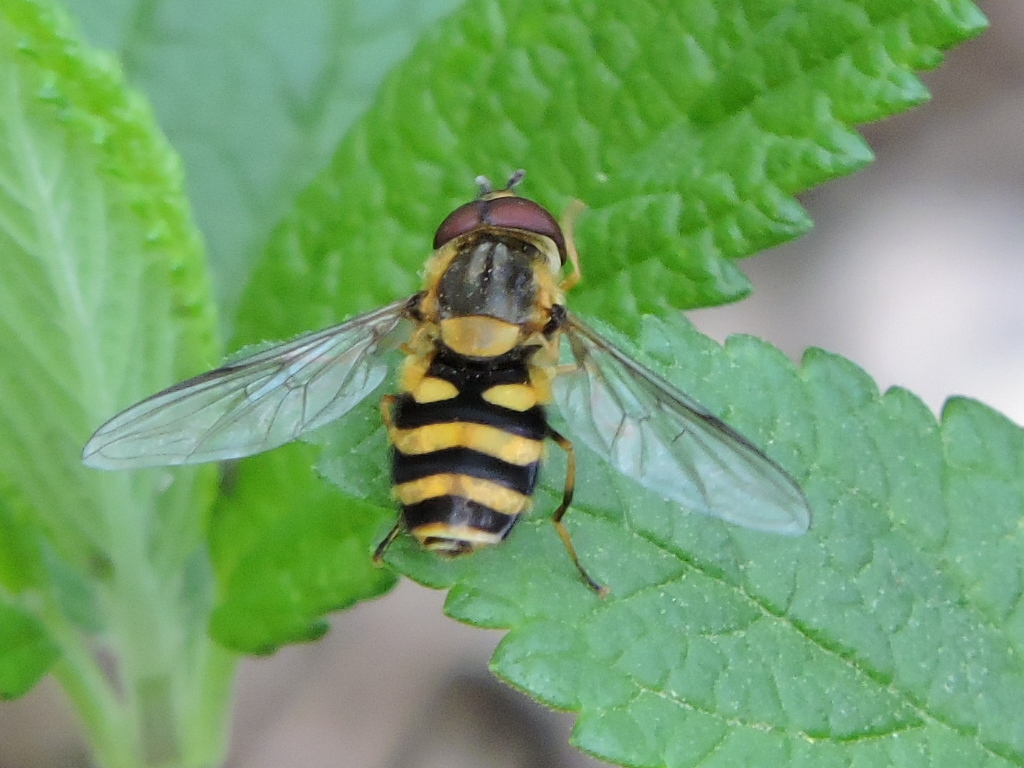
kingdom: Animalia
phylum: Arthropoda
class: Insecta
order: Diptera
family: Syrphidae
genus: Syrphus
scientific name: Syrphus knabi
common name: Eastern flower fly
